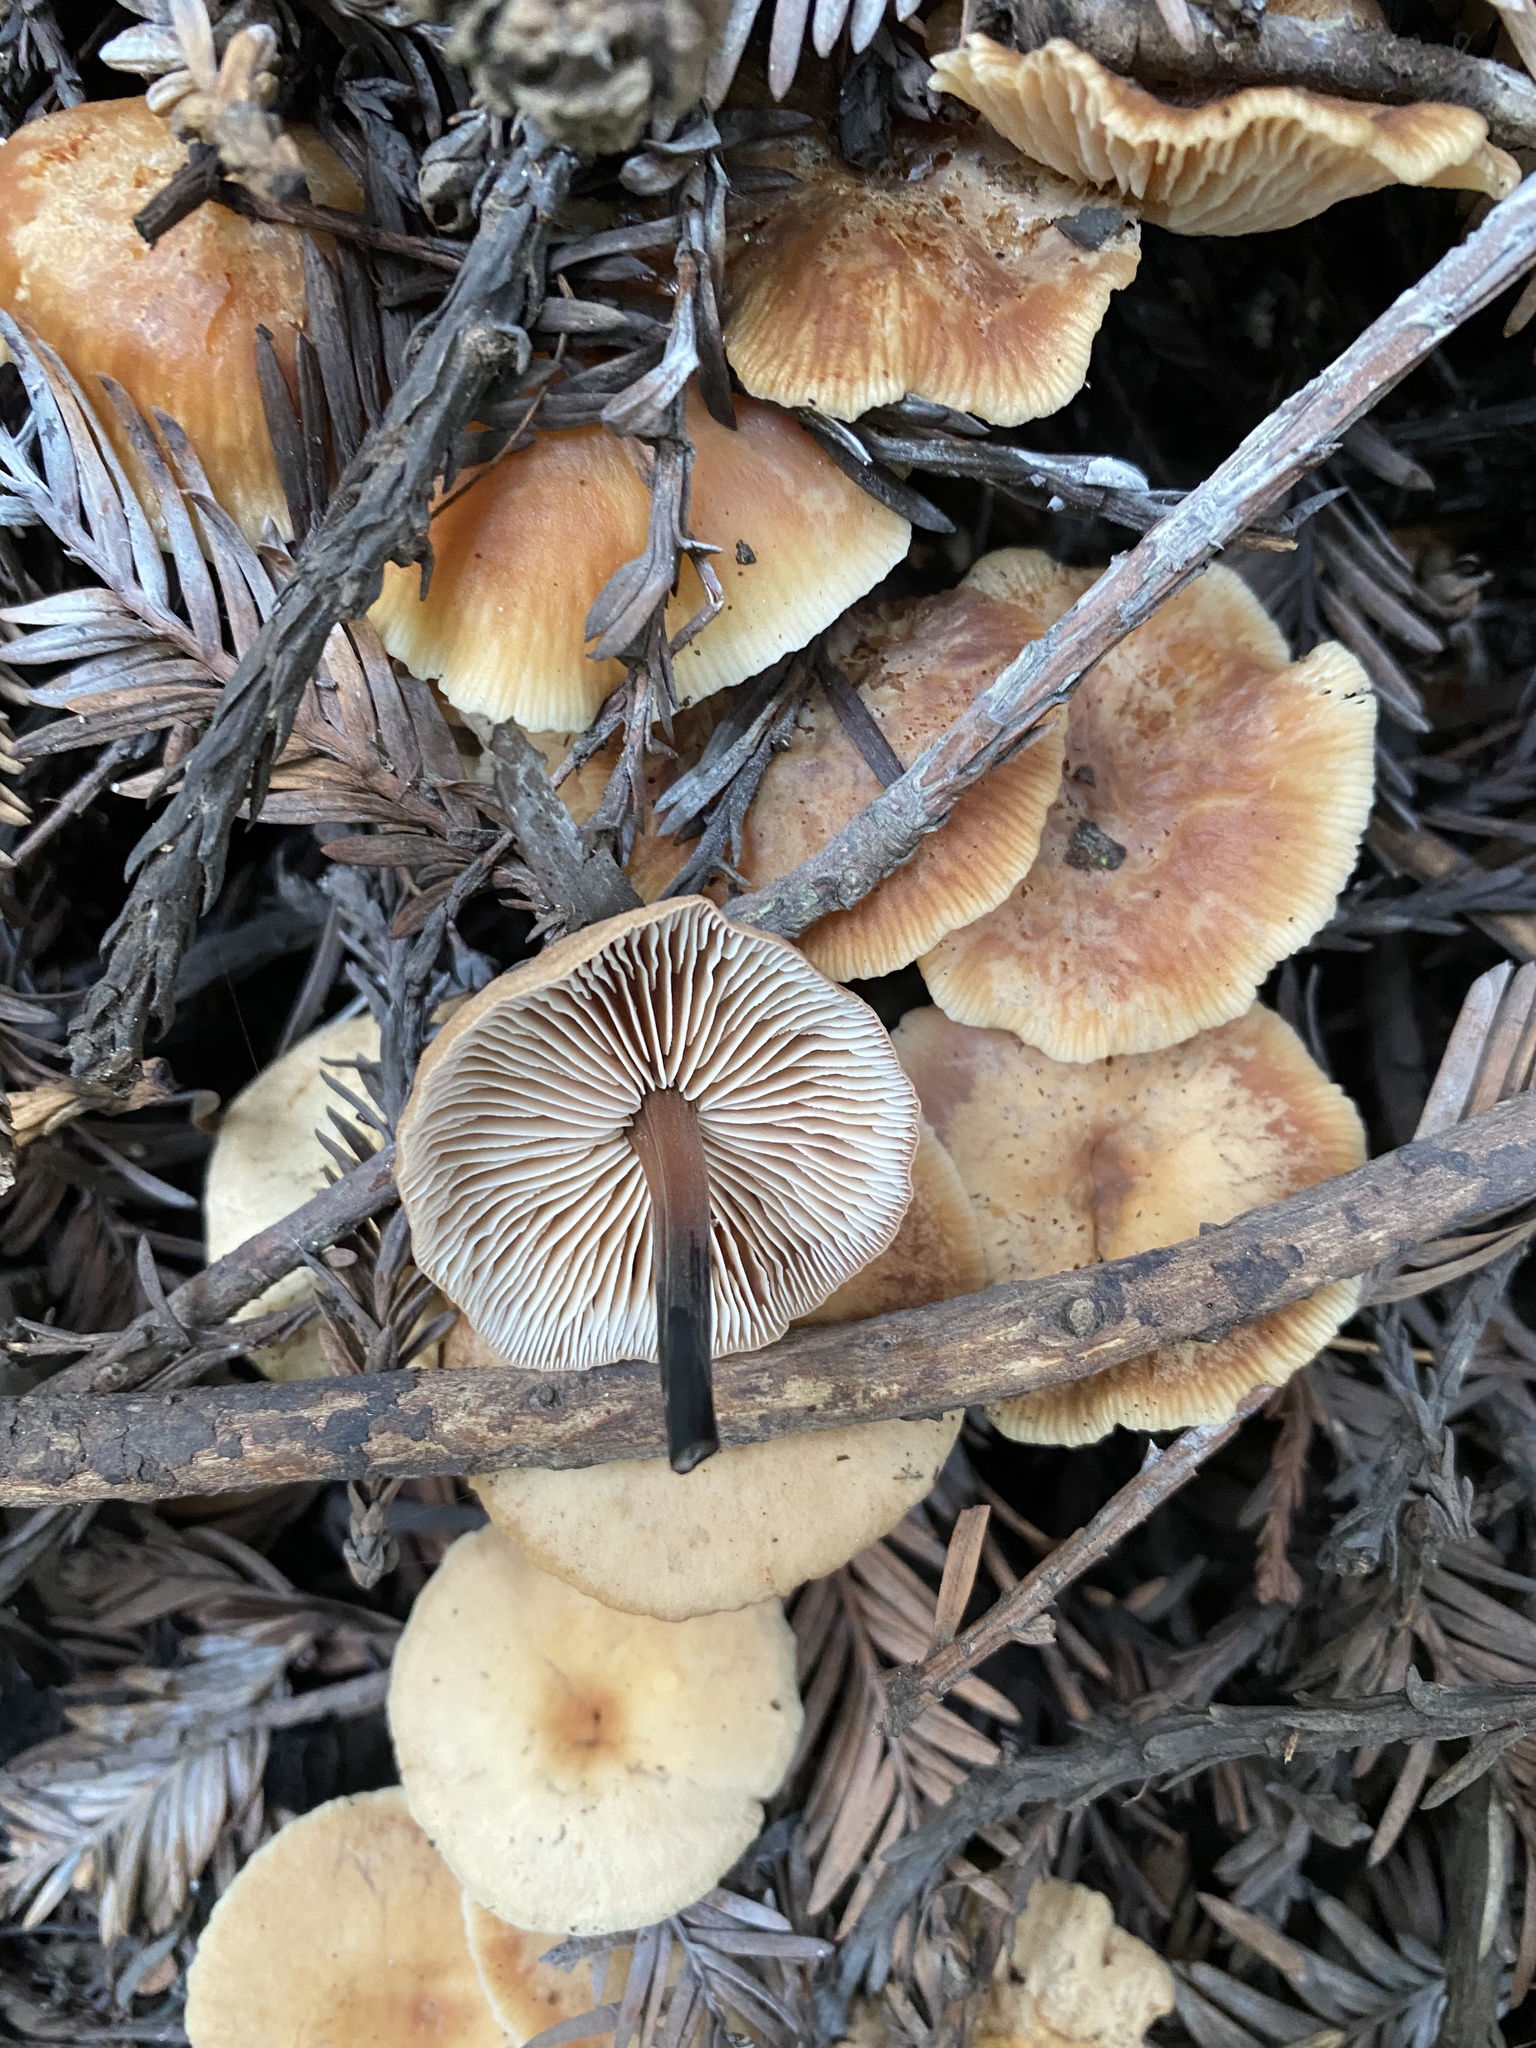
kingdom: Fungi
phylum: Basidiomycota
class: Agaricomycetes
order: Agaricales
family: Omphalotaceae
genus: Gymnopus
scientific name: Gymnopus brassicolens
